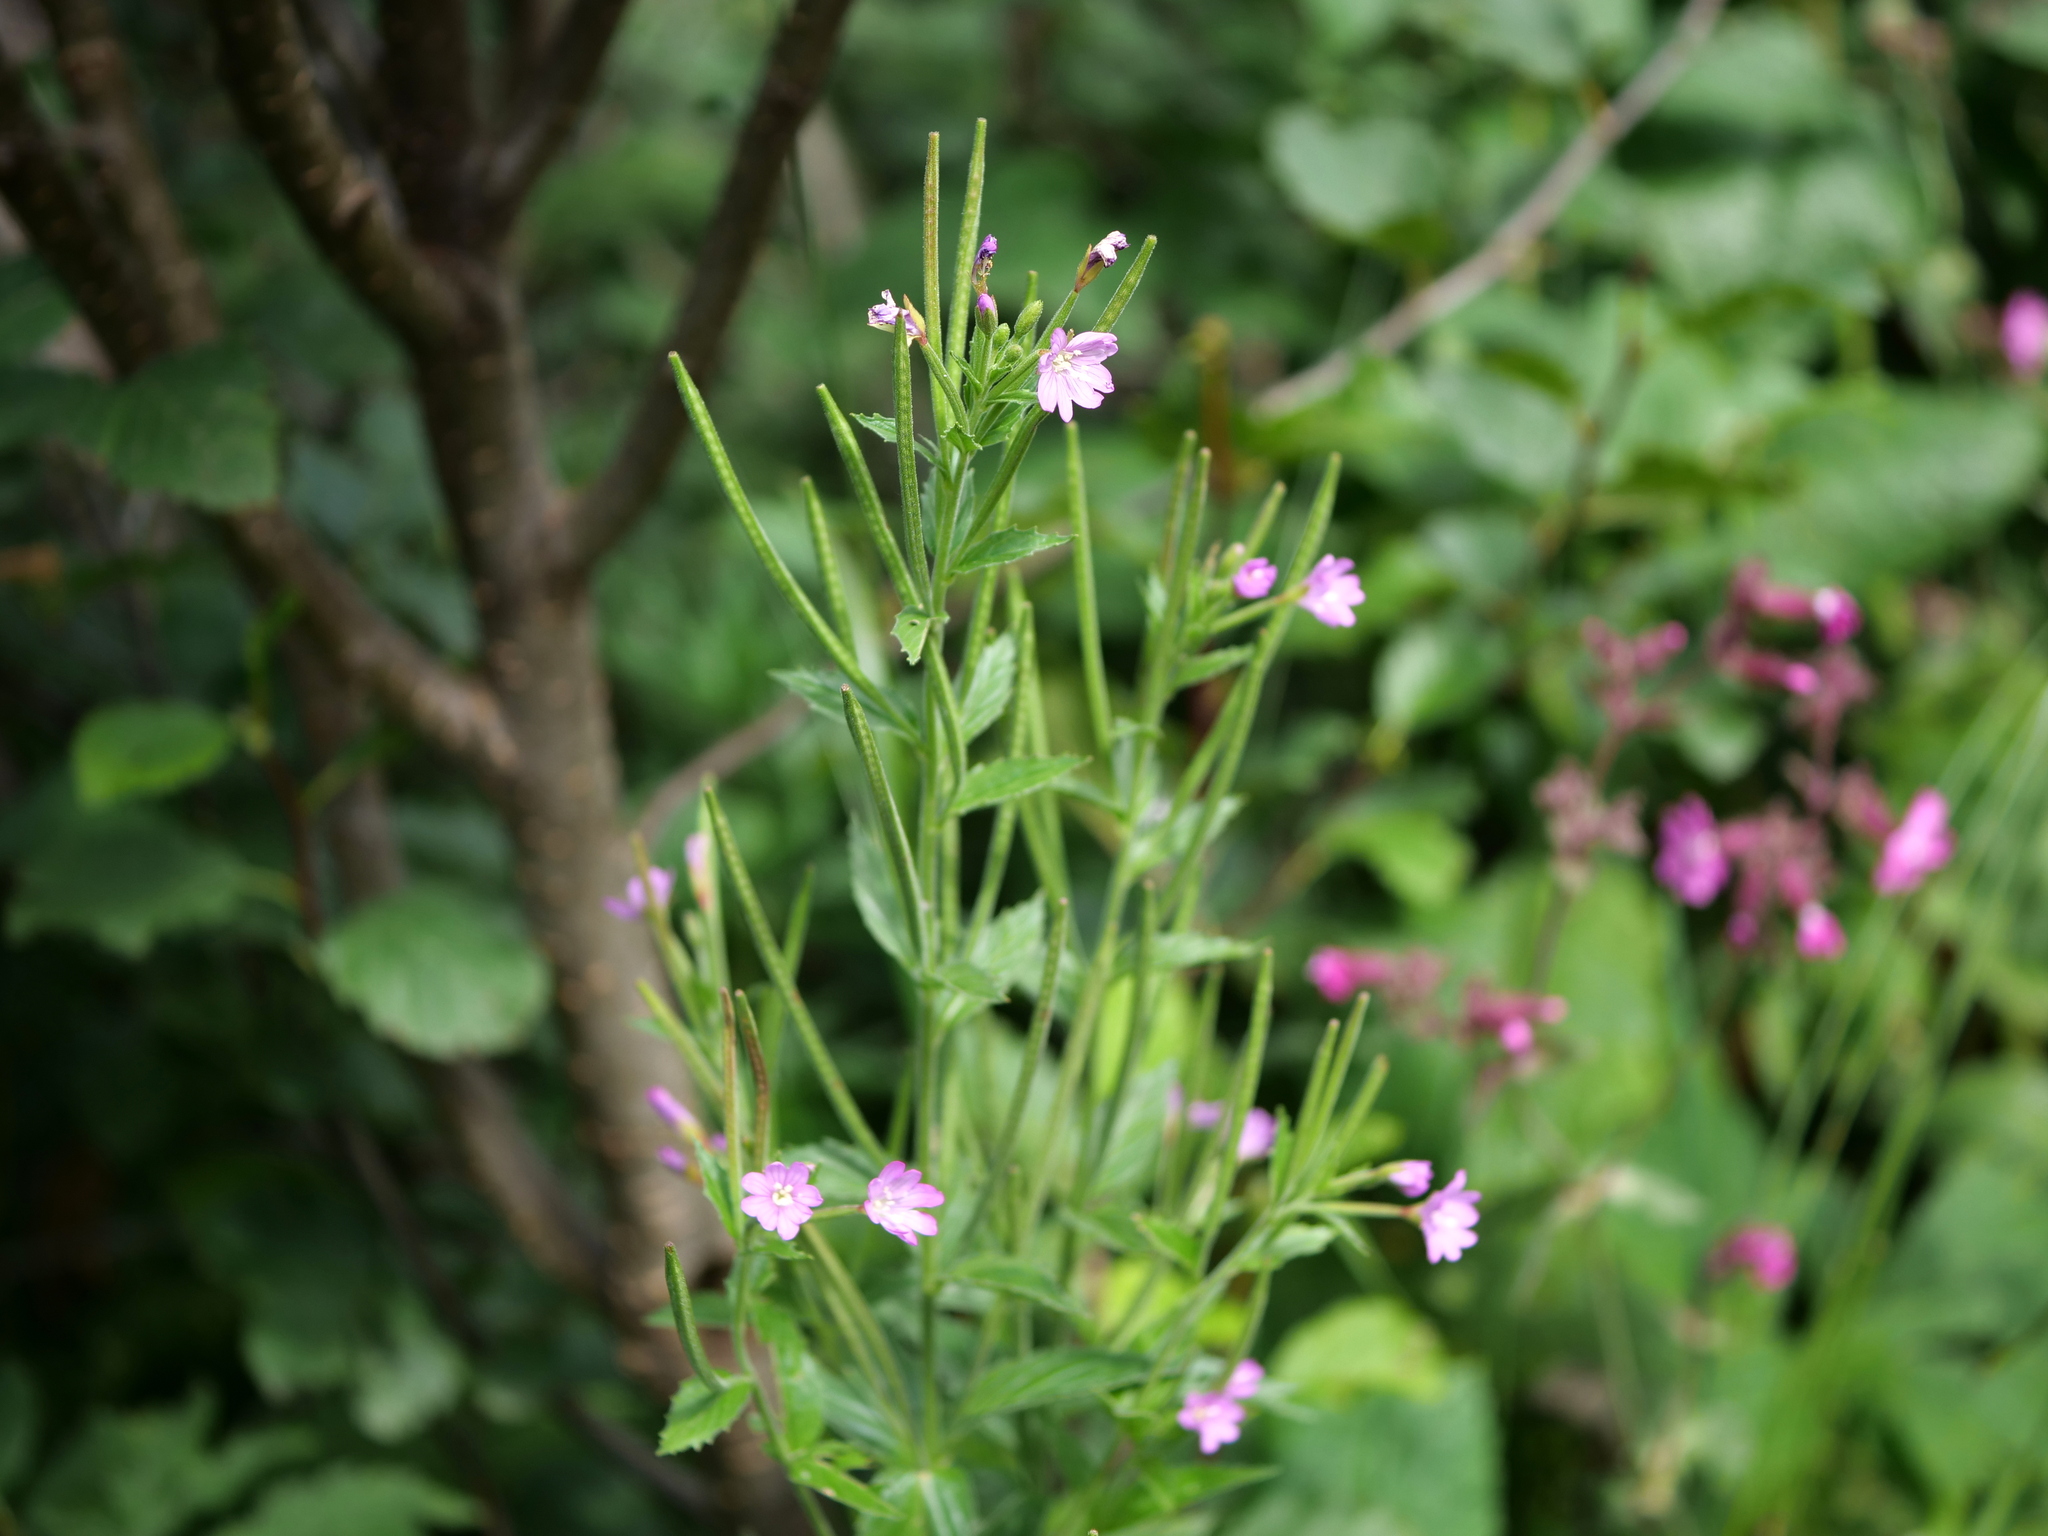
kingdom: Plantae
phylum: Tracheophyta
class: Magnoliopsida
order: Myrtales
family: Onagraceae
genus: Epilobium
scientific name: Epilobium alpestre
